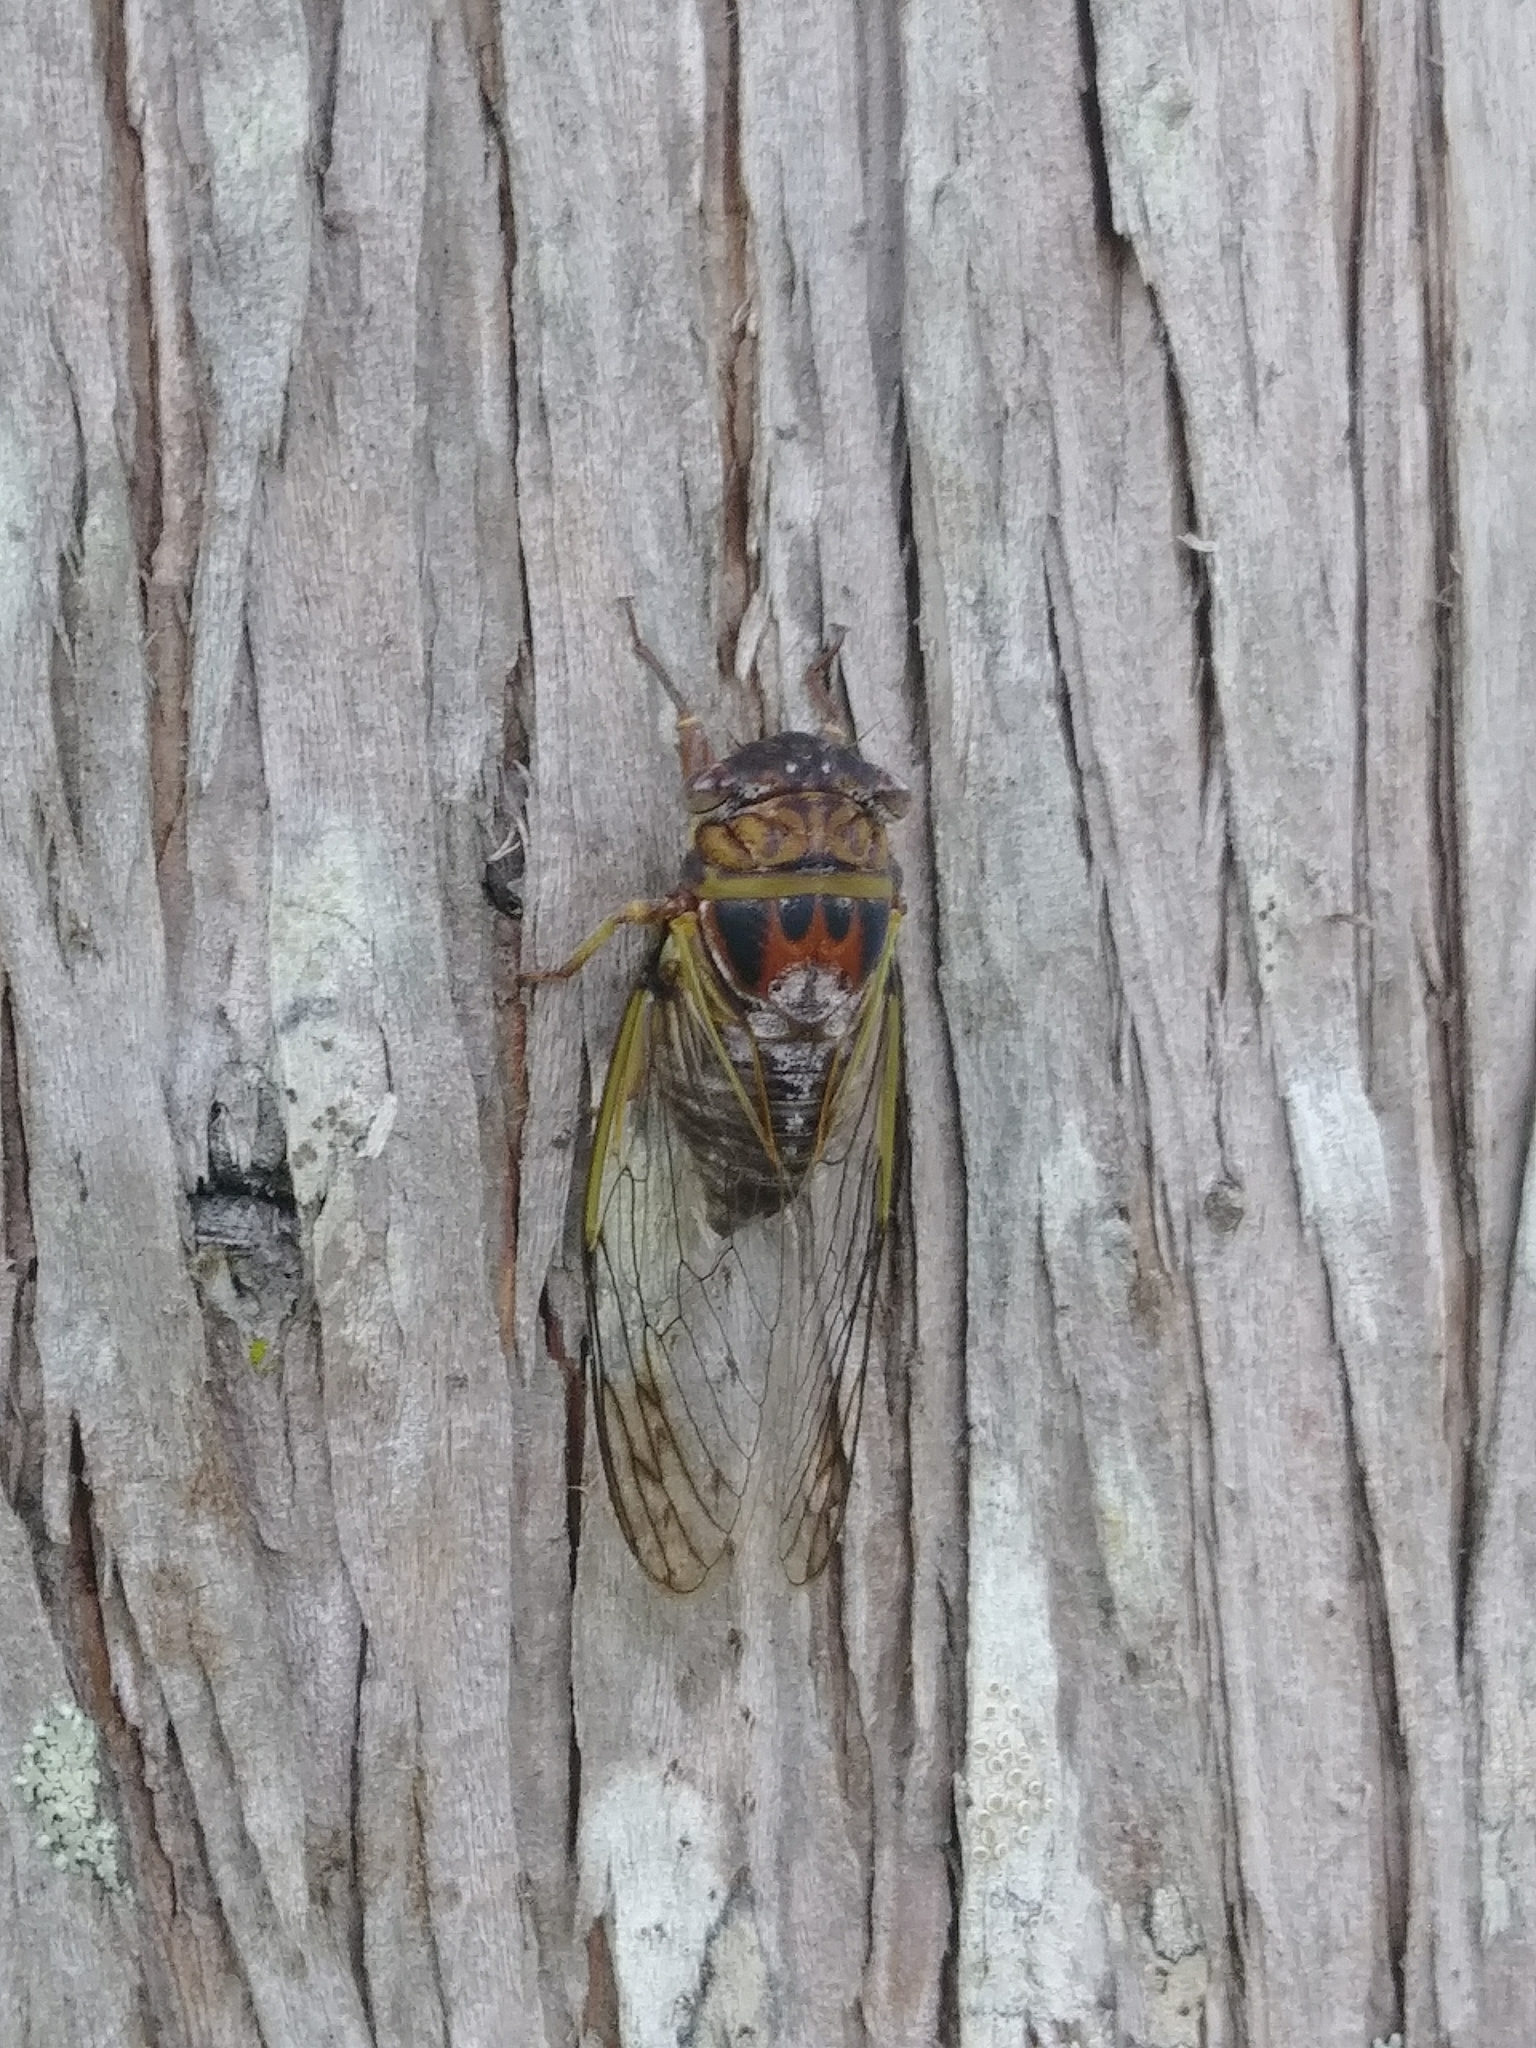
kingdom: Animalia
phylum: Arthropoda
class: Insecta
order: Hemiptera
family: Cicadidae
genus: Diceroprocta
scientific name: Diceroprocta olympusa
